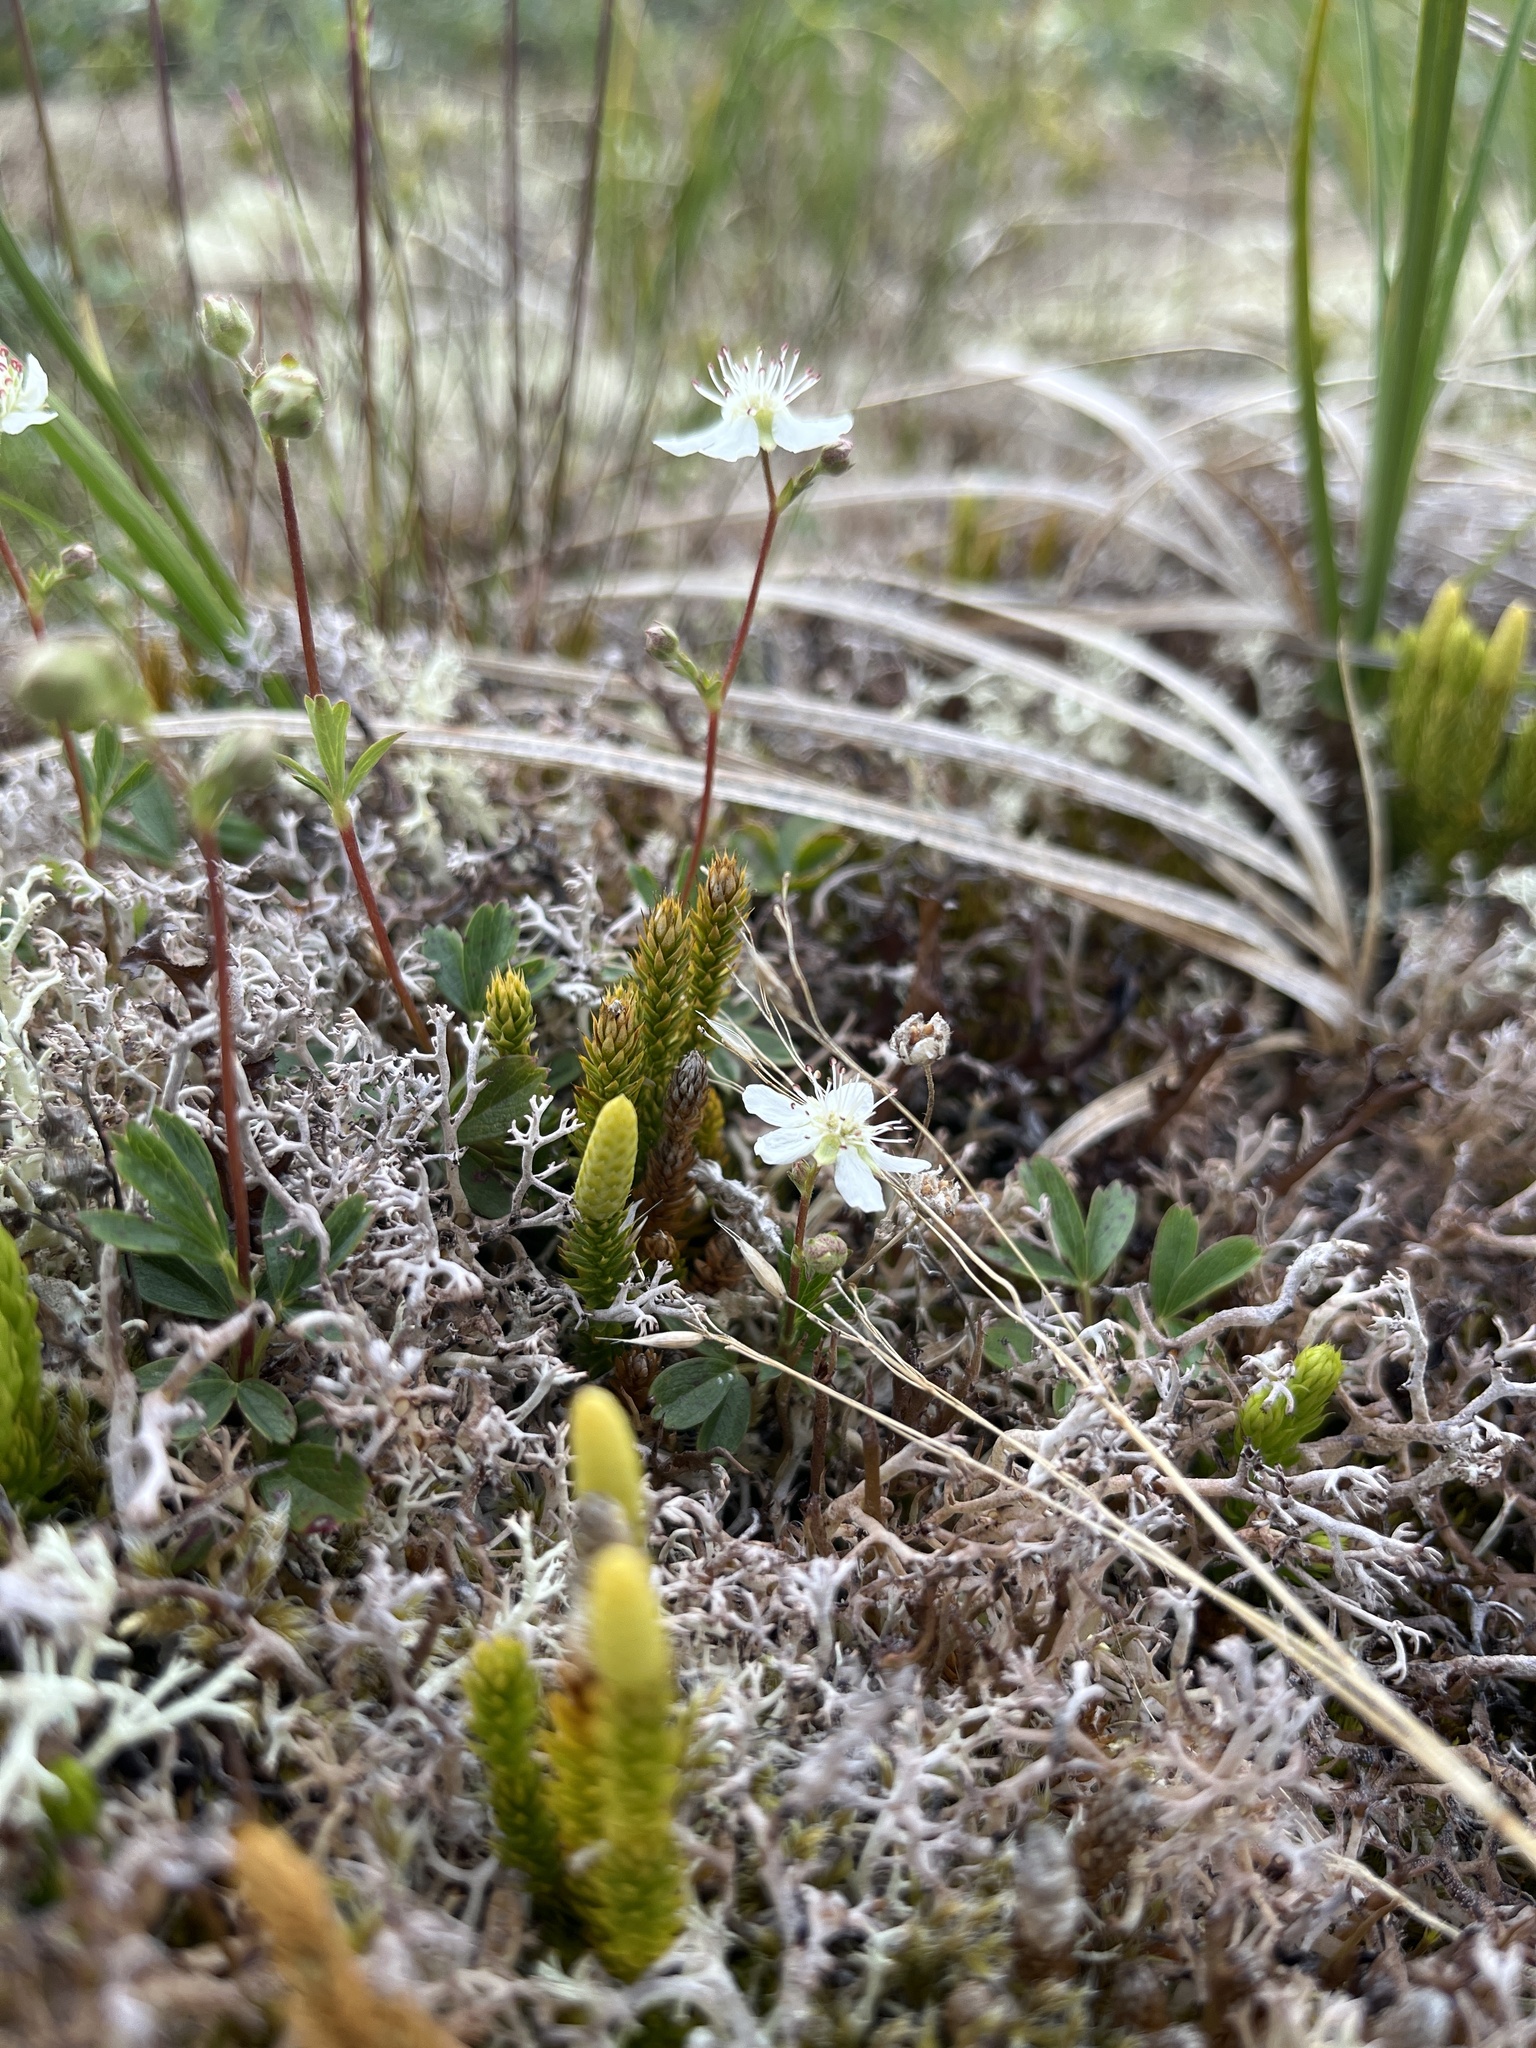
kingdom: Plantae
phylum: Tracheophyta
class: Magnoliopsida
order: Rosales
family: Rosaceae
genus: Sibbaldia
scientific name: Sibbaldia tridentata
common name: Three-toothed cinquefoil
